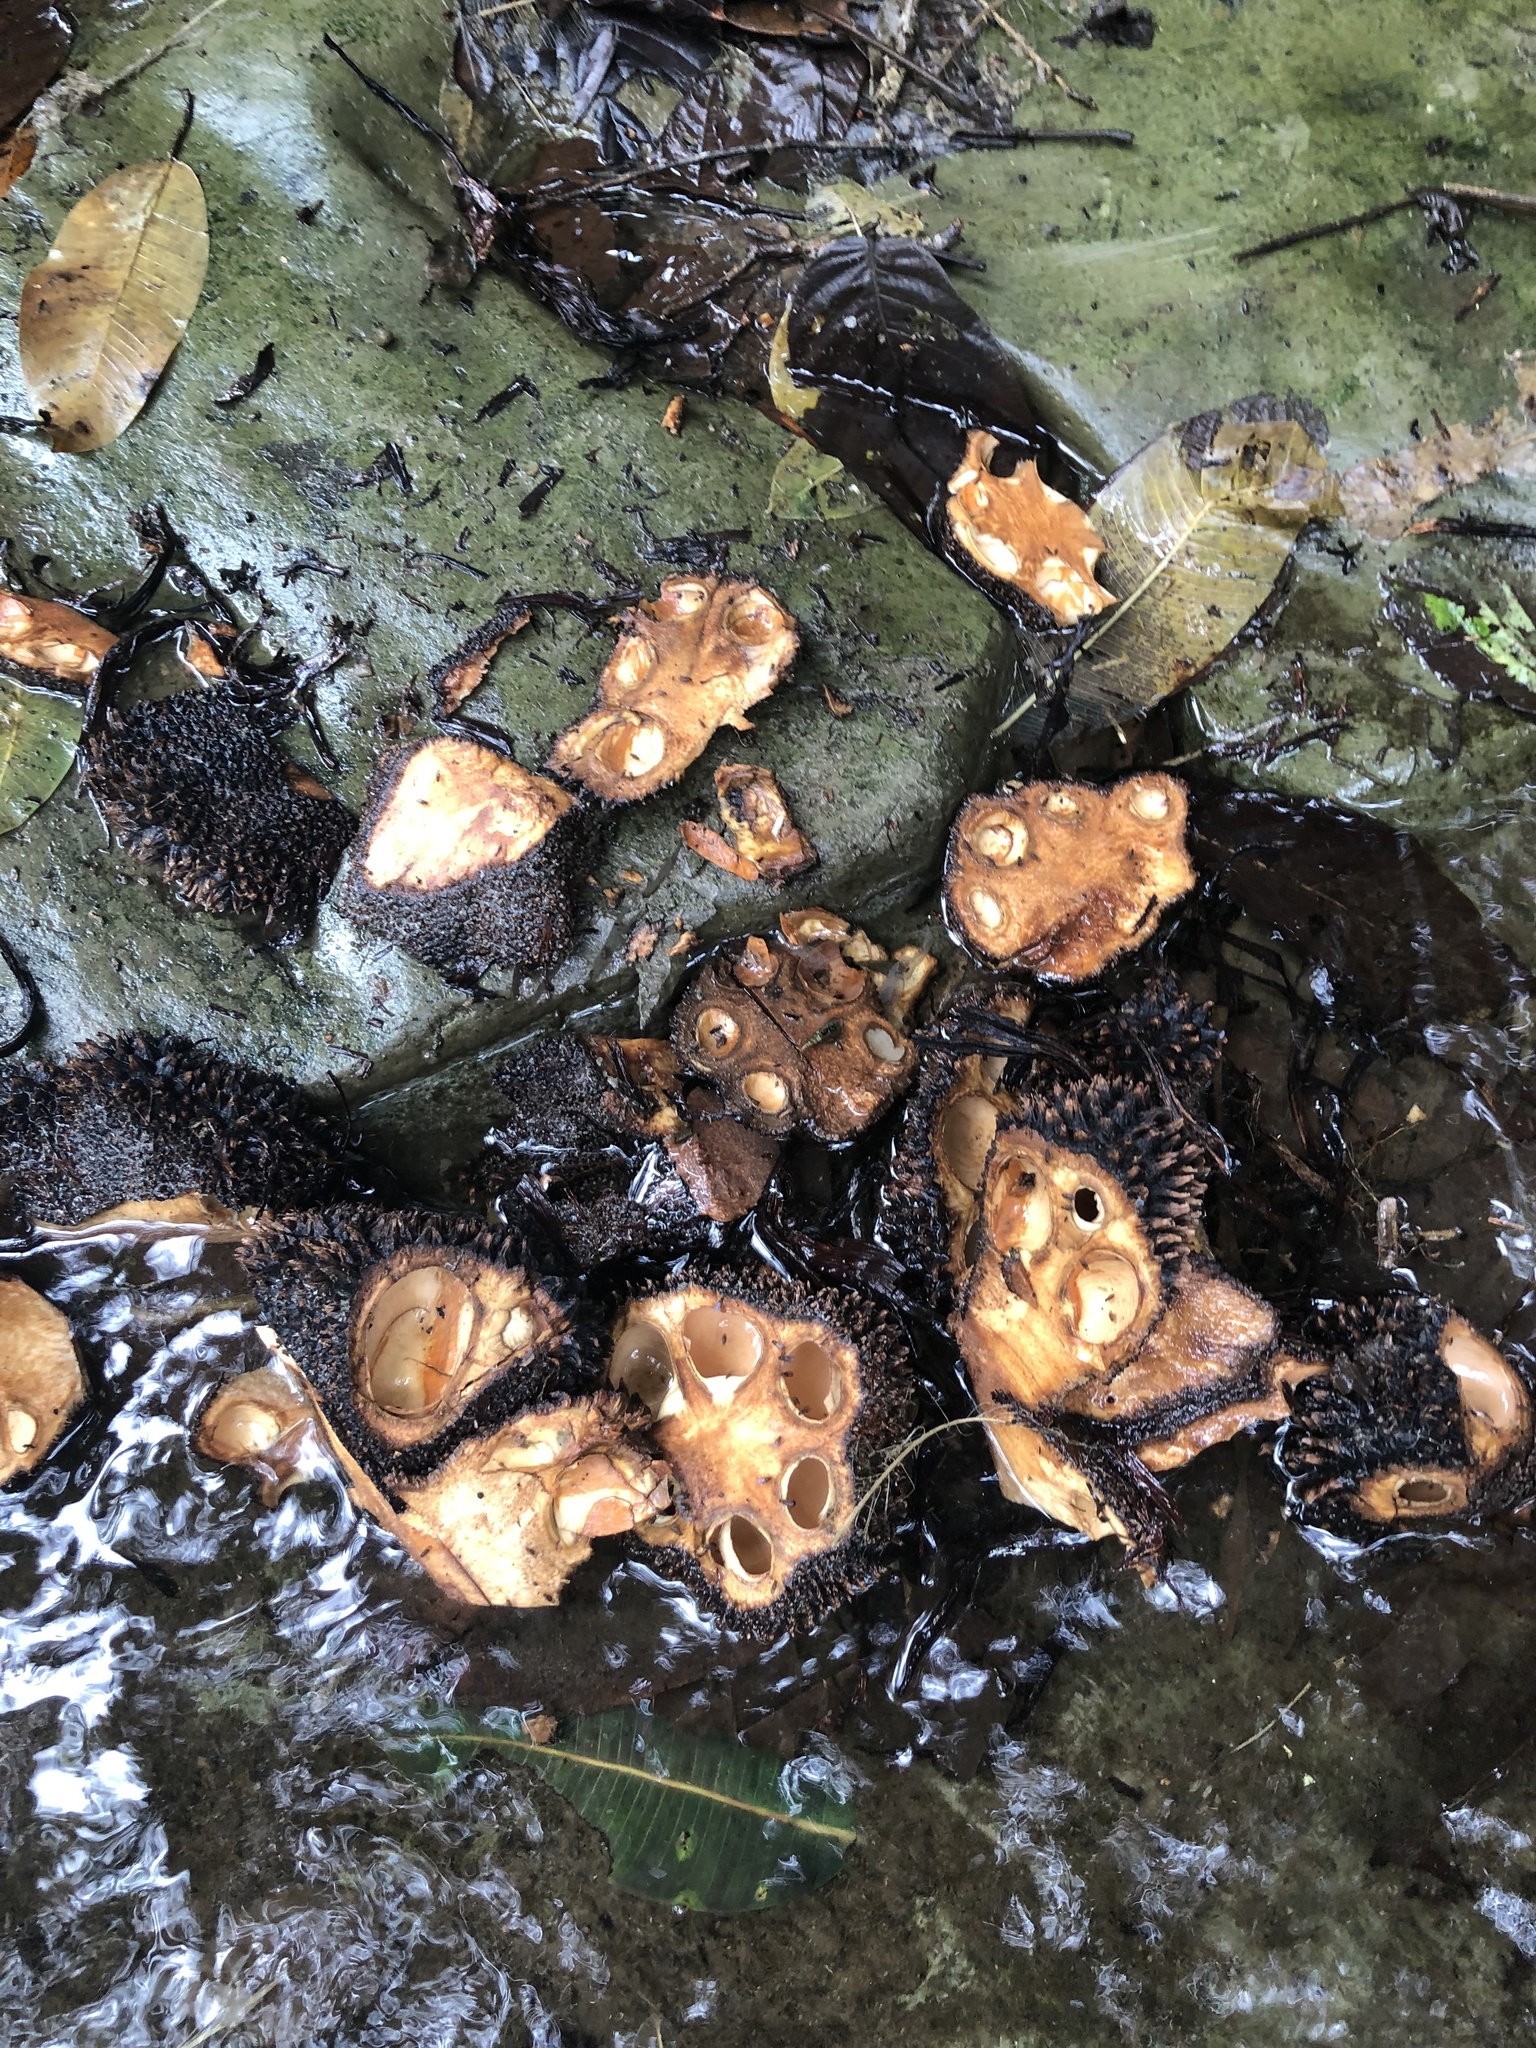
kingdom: Plantae
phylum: Tracheophyta
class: Liliopsida
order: Arecales
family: Arecaceae
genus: Phytelephas
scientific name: Phytelephas aequatorialis
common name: Ivory palm
